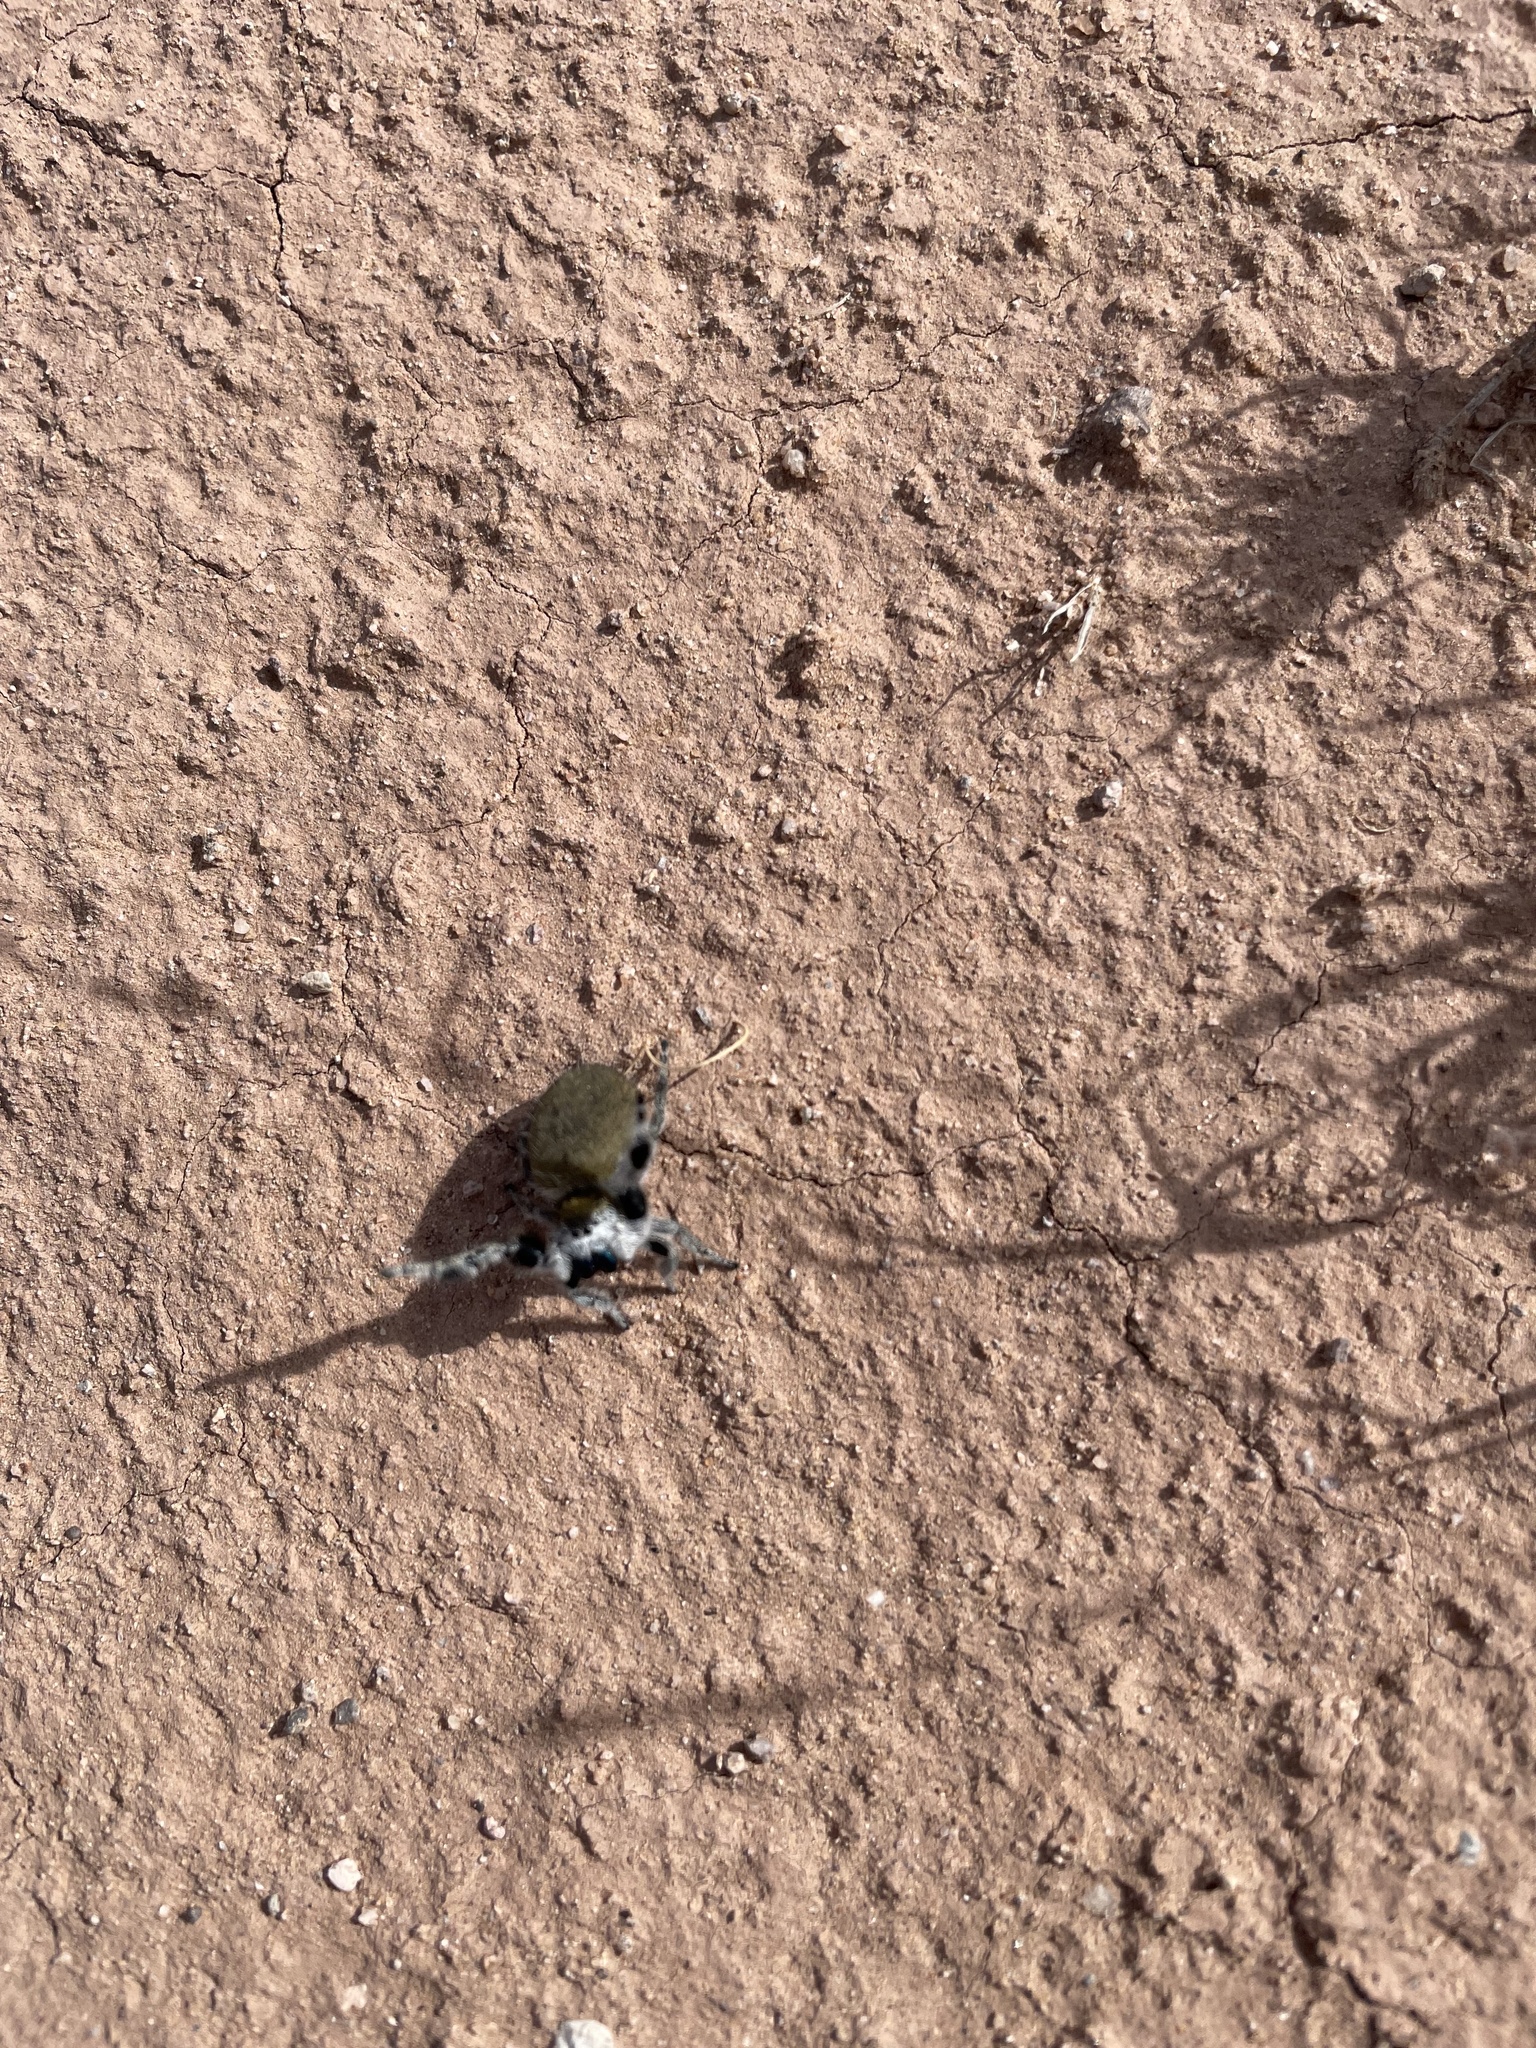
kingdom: Animalia
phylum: Arthropoda
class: Arachnida
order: Araneae
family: Salticidae
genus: Phidippus
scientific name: Phidippus tyrannus
